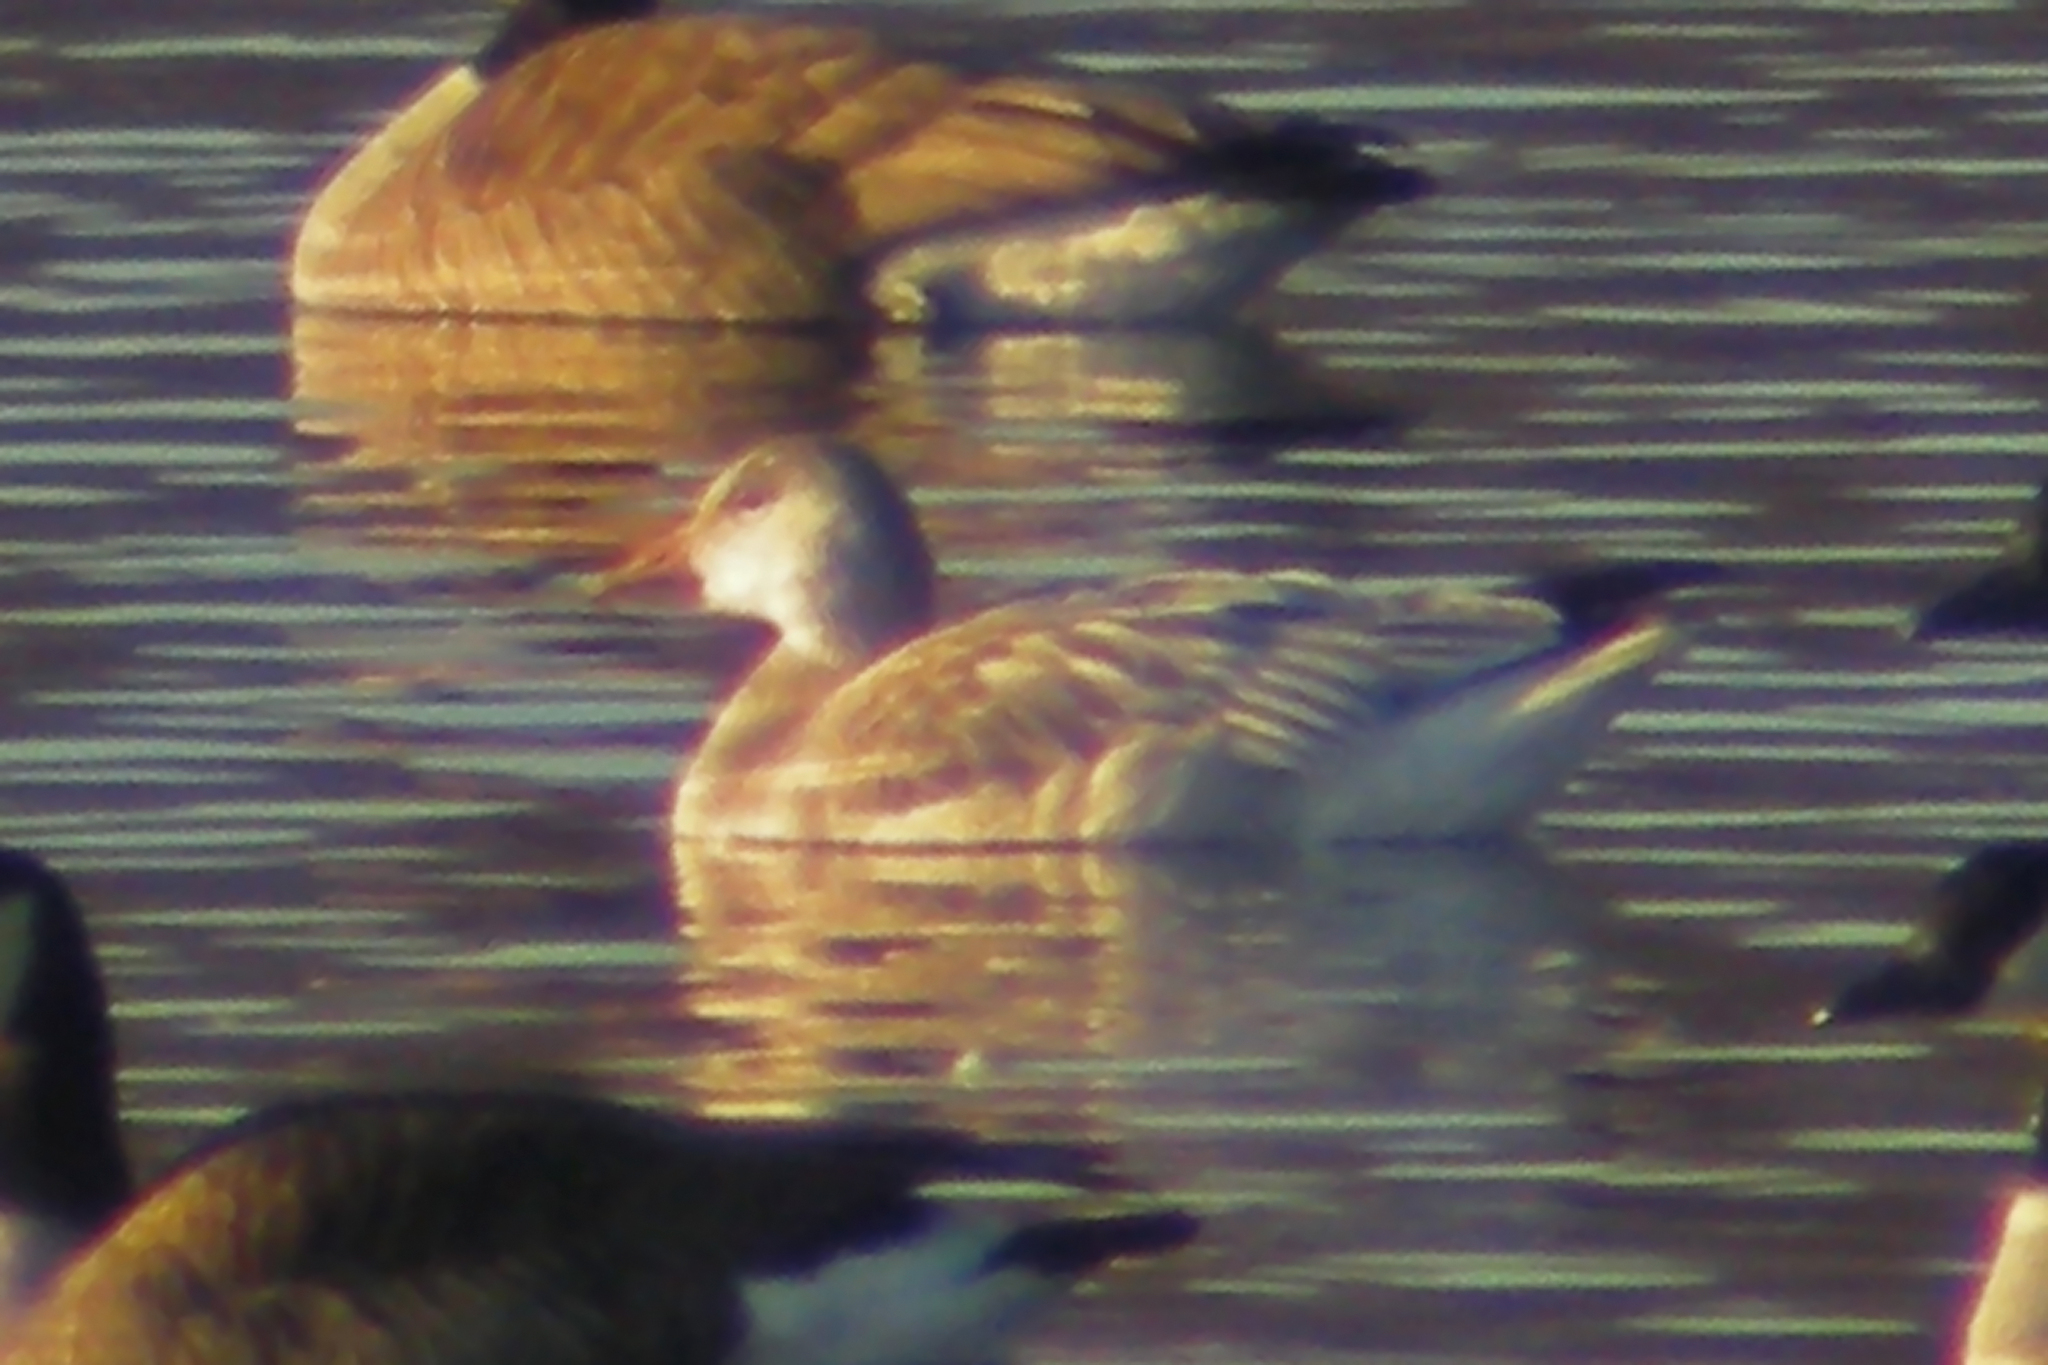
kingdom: Animalia
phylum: Chordata
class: Aves
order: Anseriformes
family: Anatidae
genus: Anser
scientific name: Anser caerulescens
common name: Snow goose
